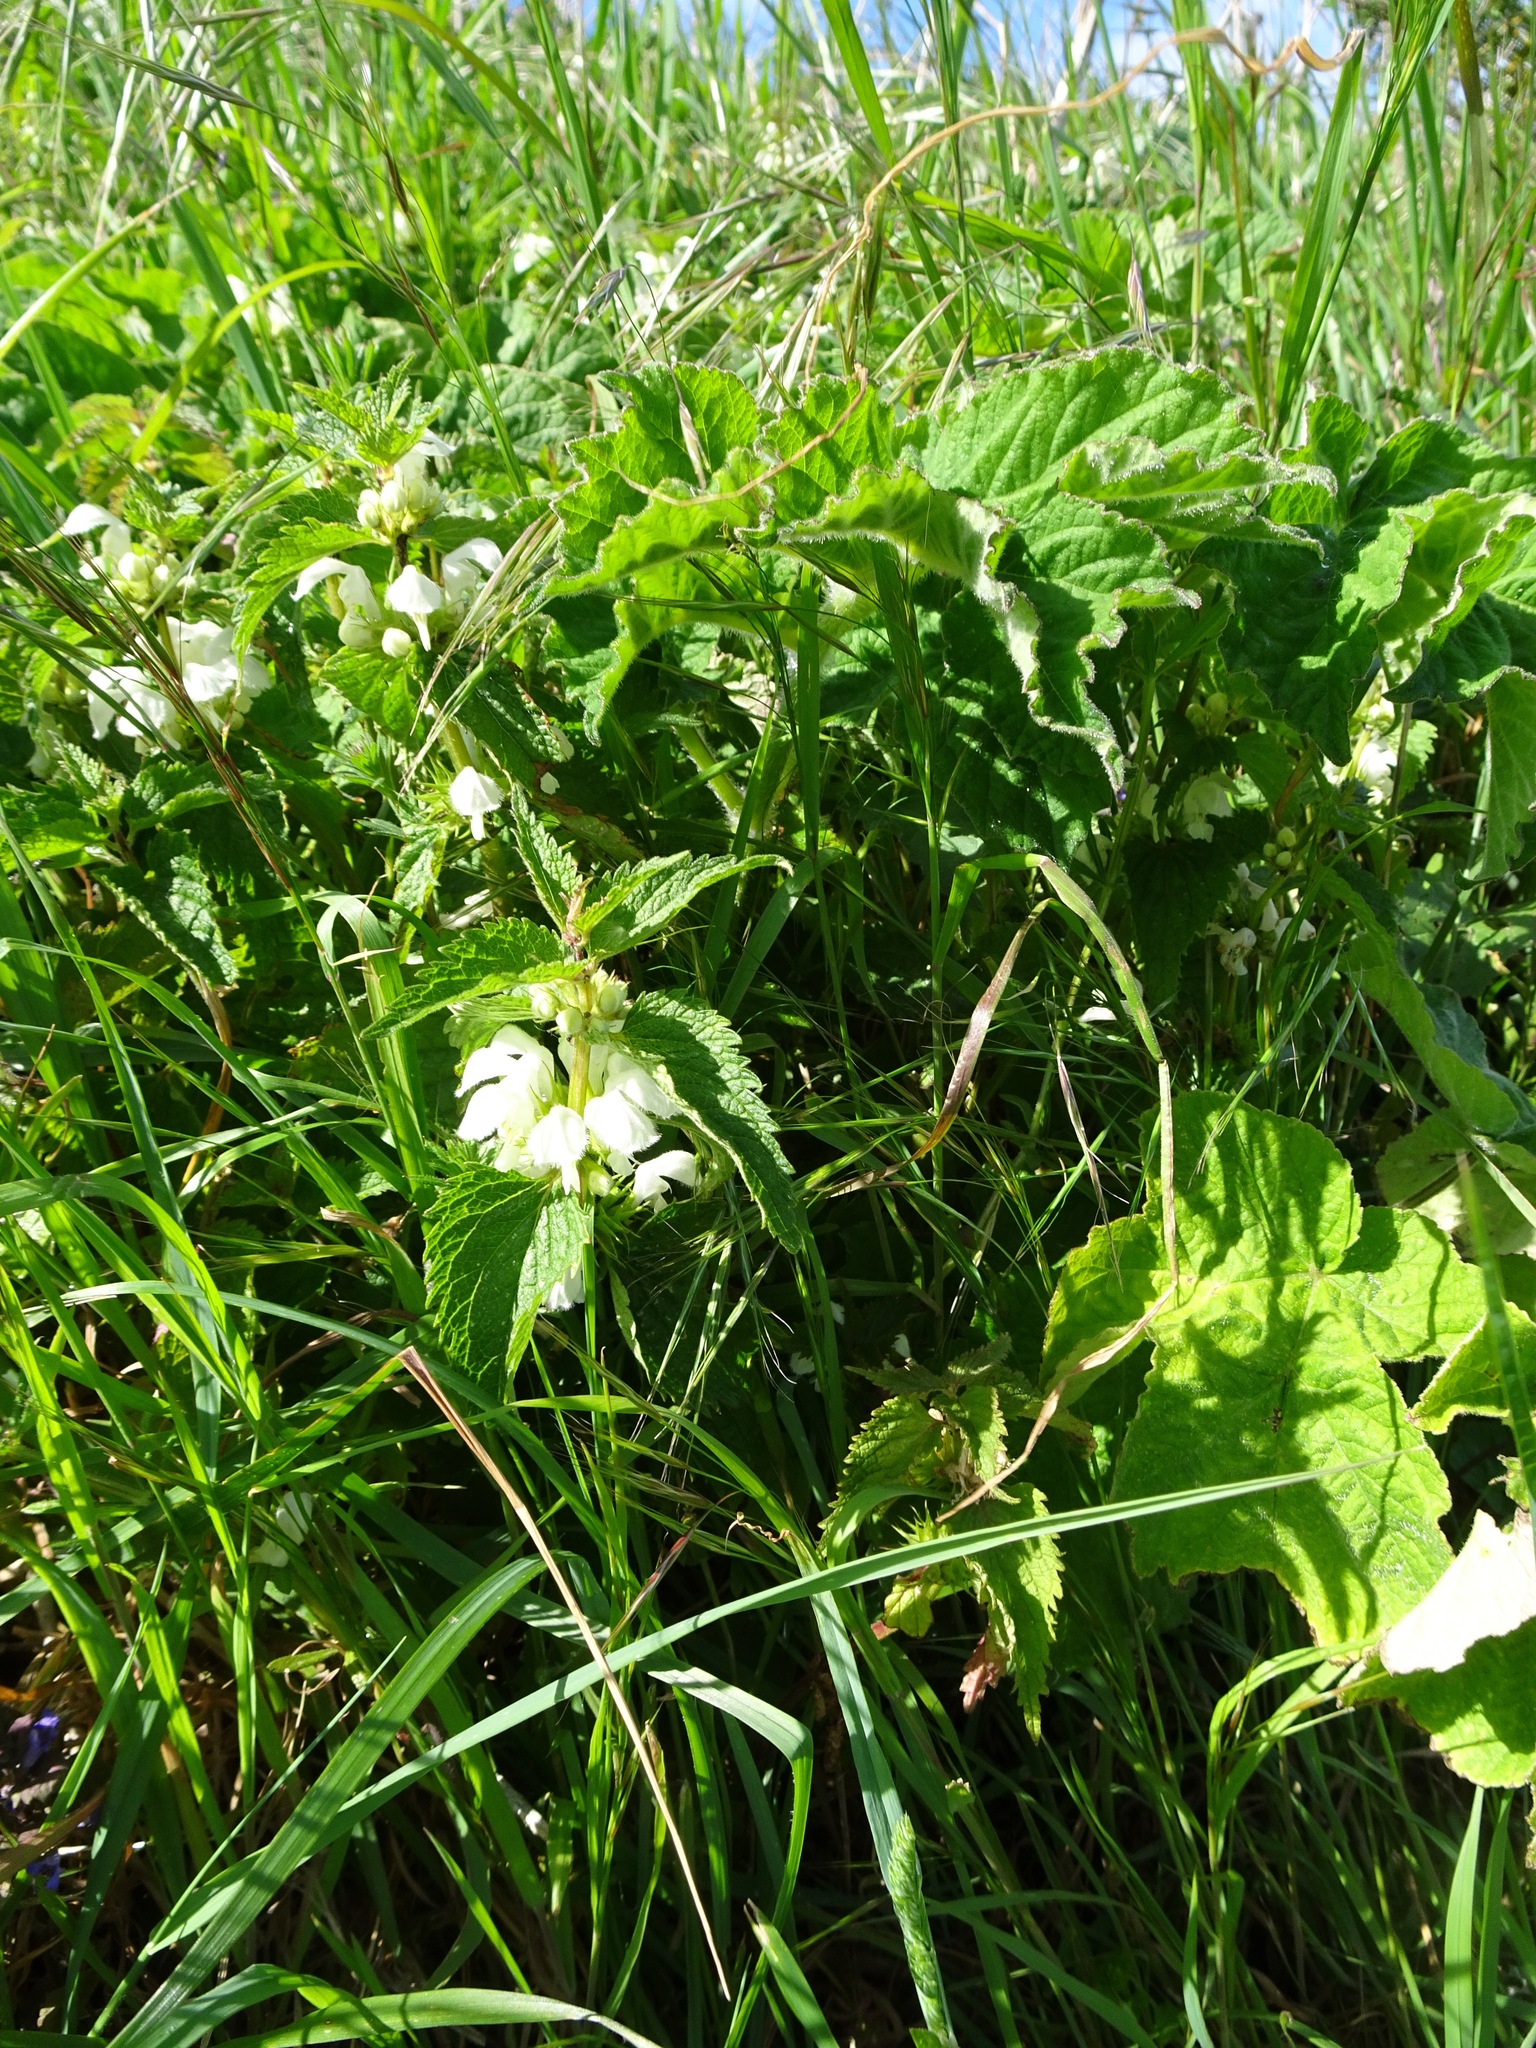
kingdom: Plantae
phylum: Tracheophyta
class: Magnoliopsida
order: Lamiales
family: Lamiaceae
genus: Lamium
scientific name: Lamium album
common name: White dead-nettle
